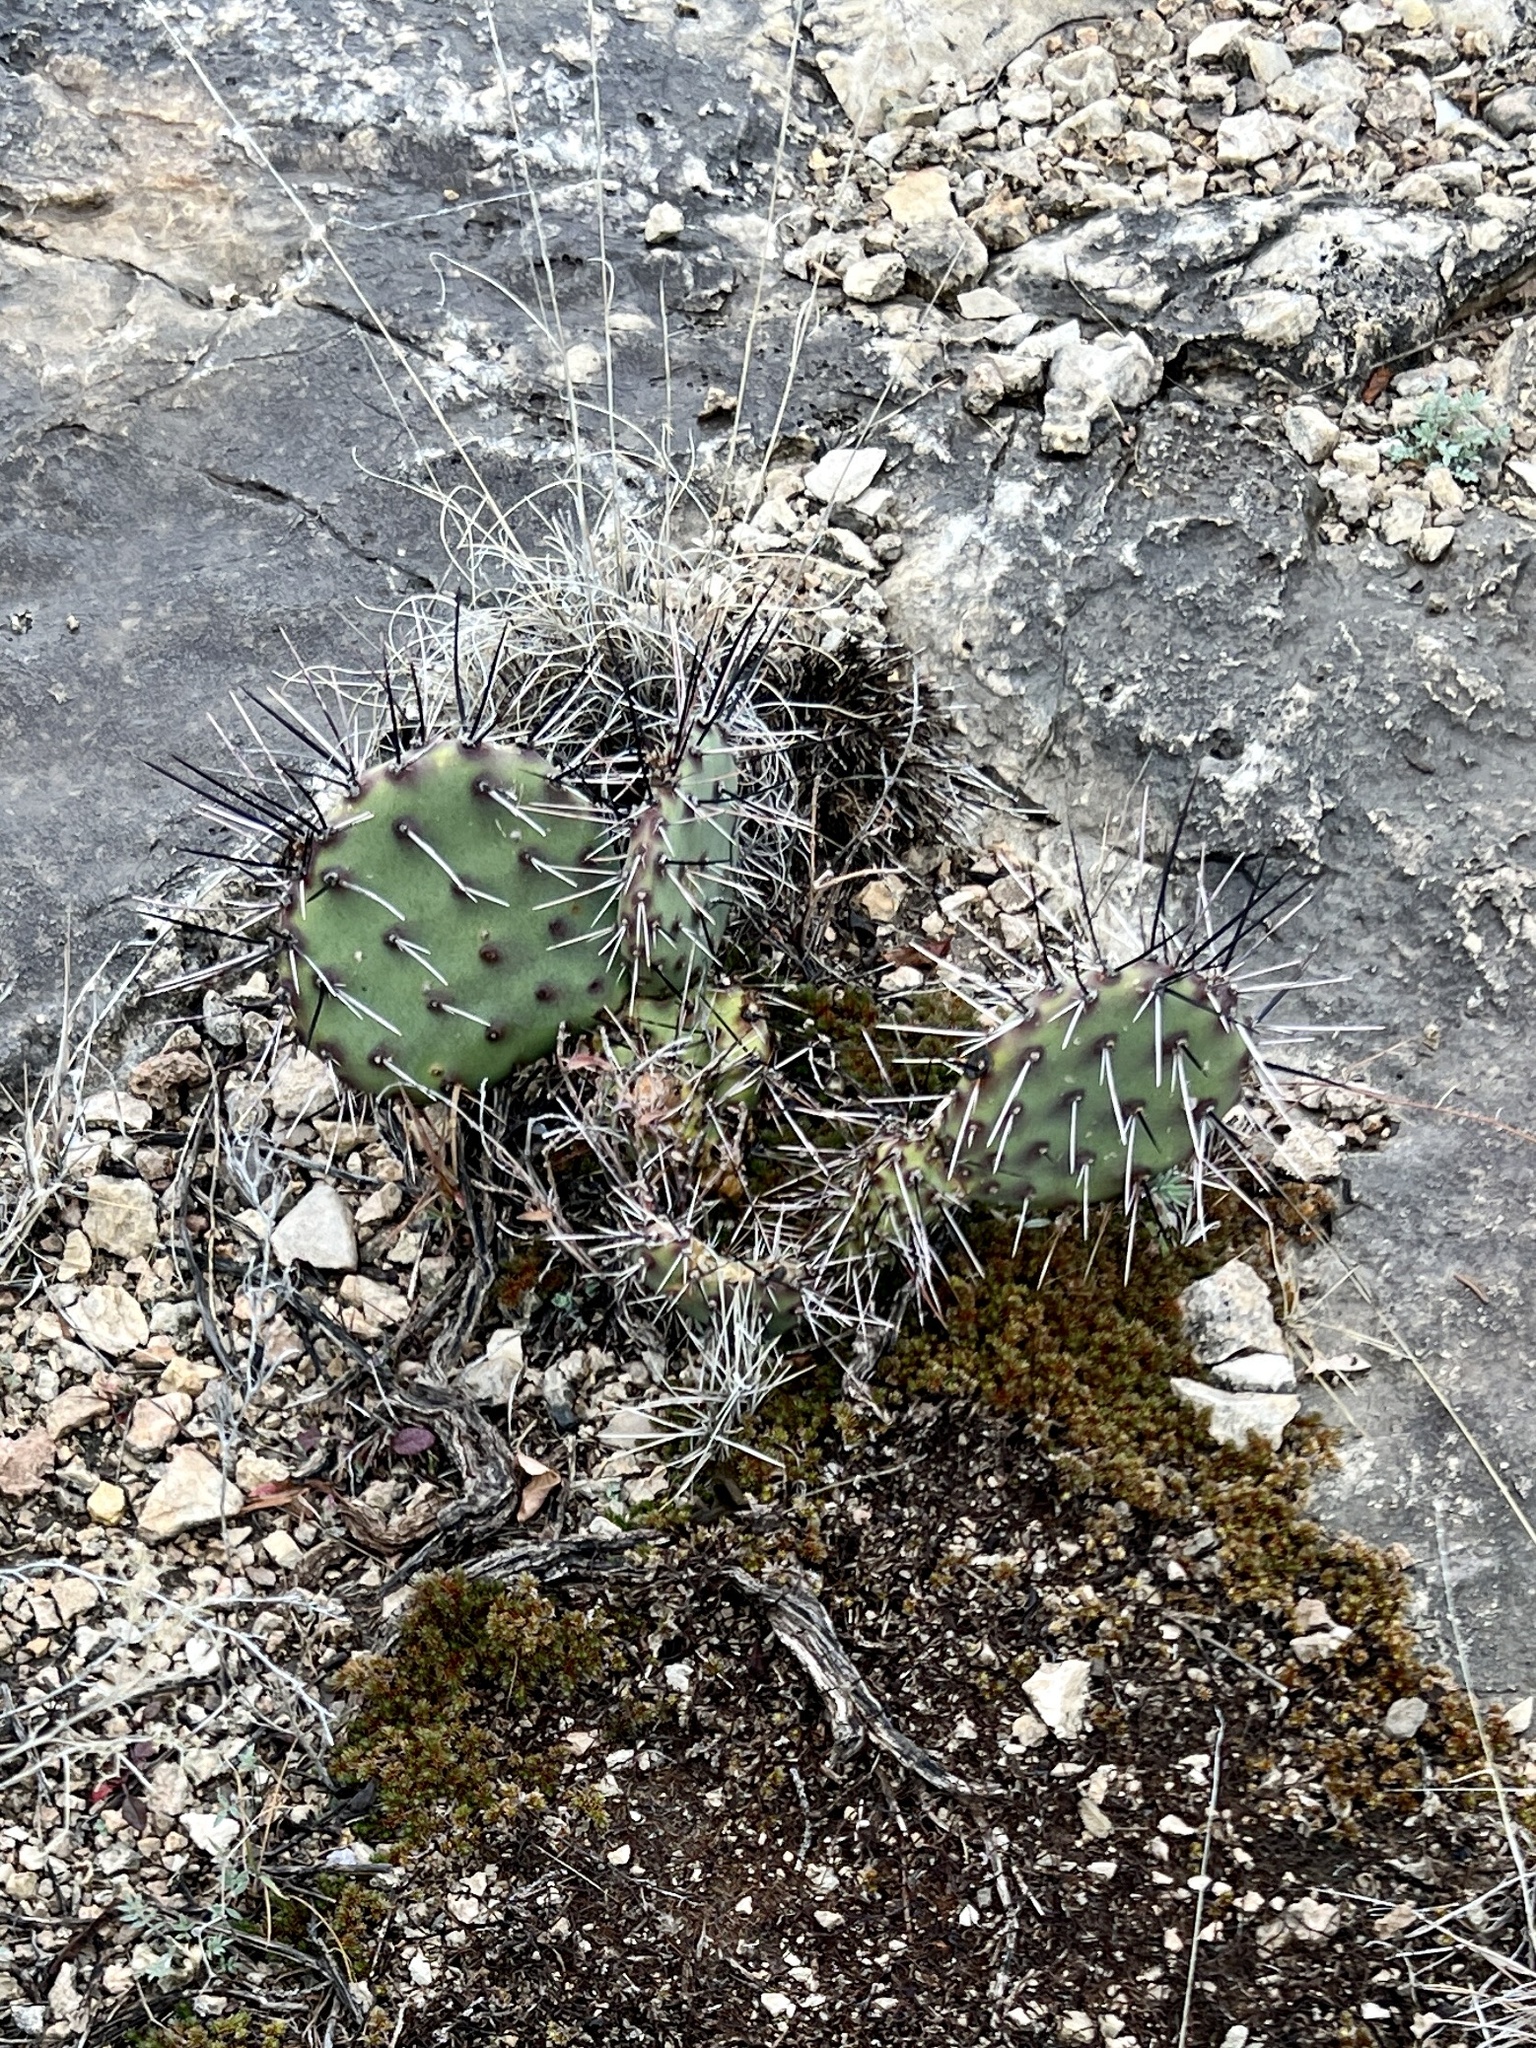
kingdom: Plantae
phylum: Tracheophyta
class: Magnoliopsida
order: Caryophyllales
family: Cactaceae
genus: Opuntia
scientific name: Opuntia phaeacantha
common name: New mexico prickly-pear
